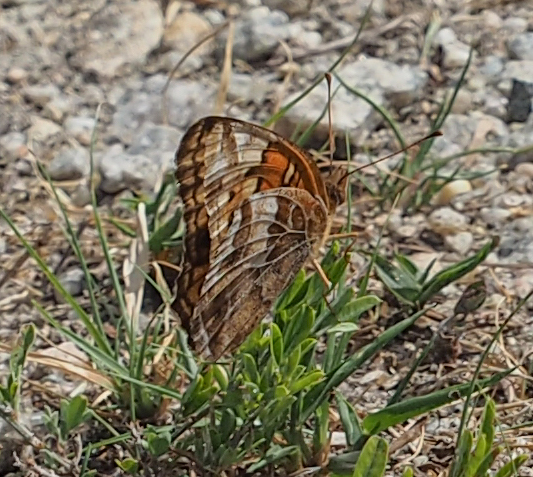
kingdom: Animalia
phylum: Arthropoda
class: Insecta
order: Lepidoptera
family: Nymphalidae
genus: Euptoieta
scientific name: Euptoieta claudia
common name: Variegated fritillary
